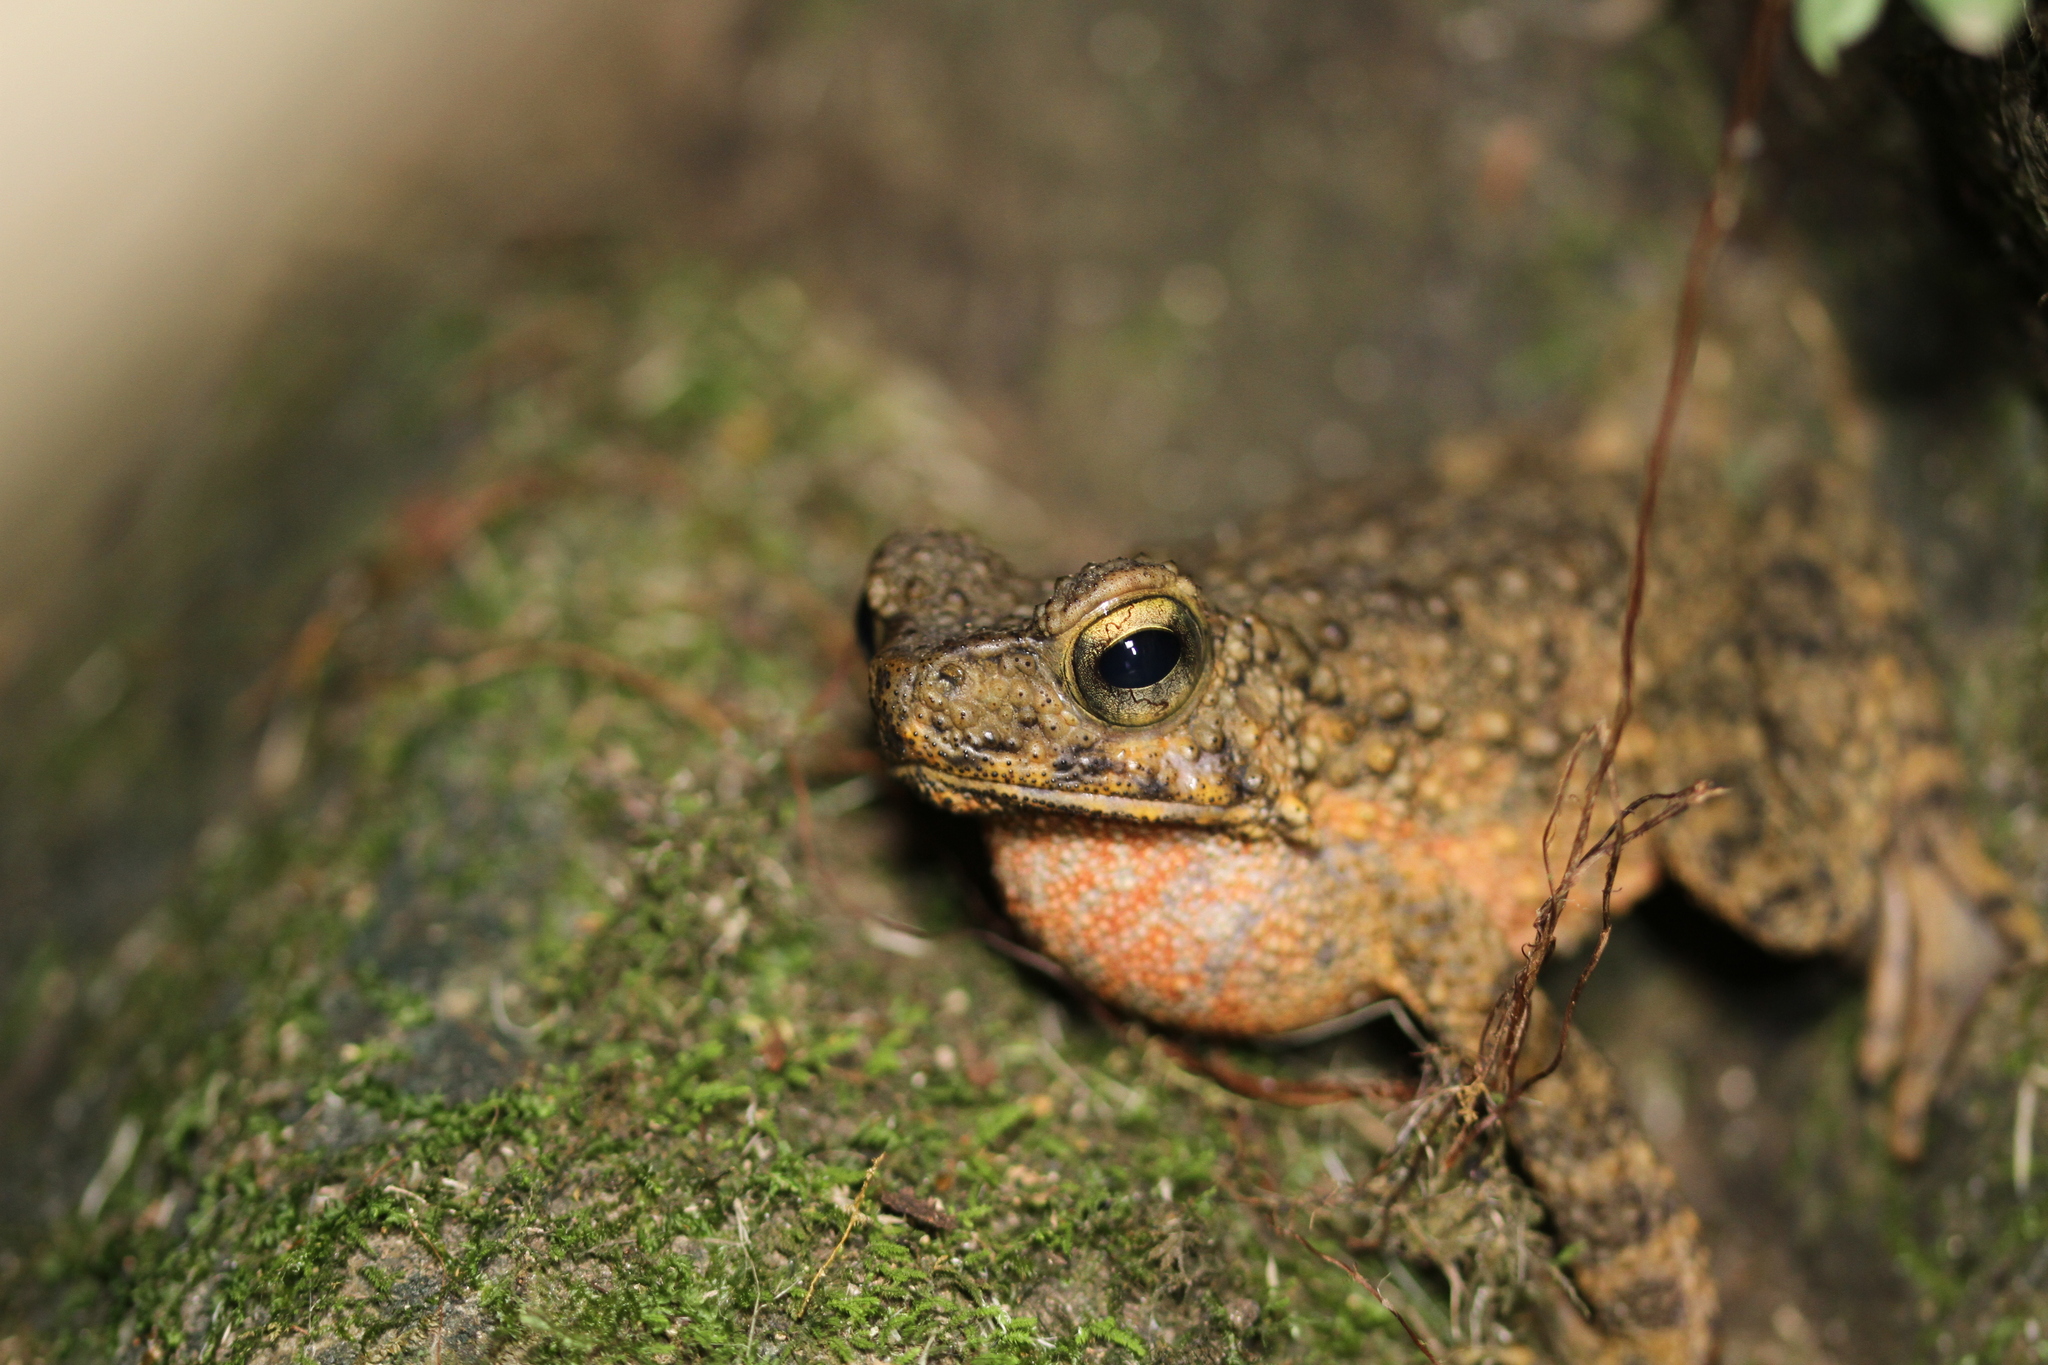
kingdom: Animalia
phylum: Chordata
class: Amphibia
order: Anura
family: Bufonidae
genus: Phrynoidis
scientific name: Phrynoidis asper
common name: Asian giant toad
